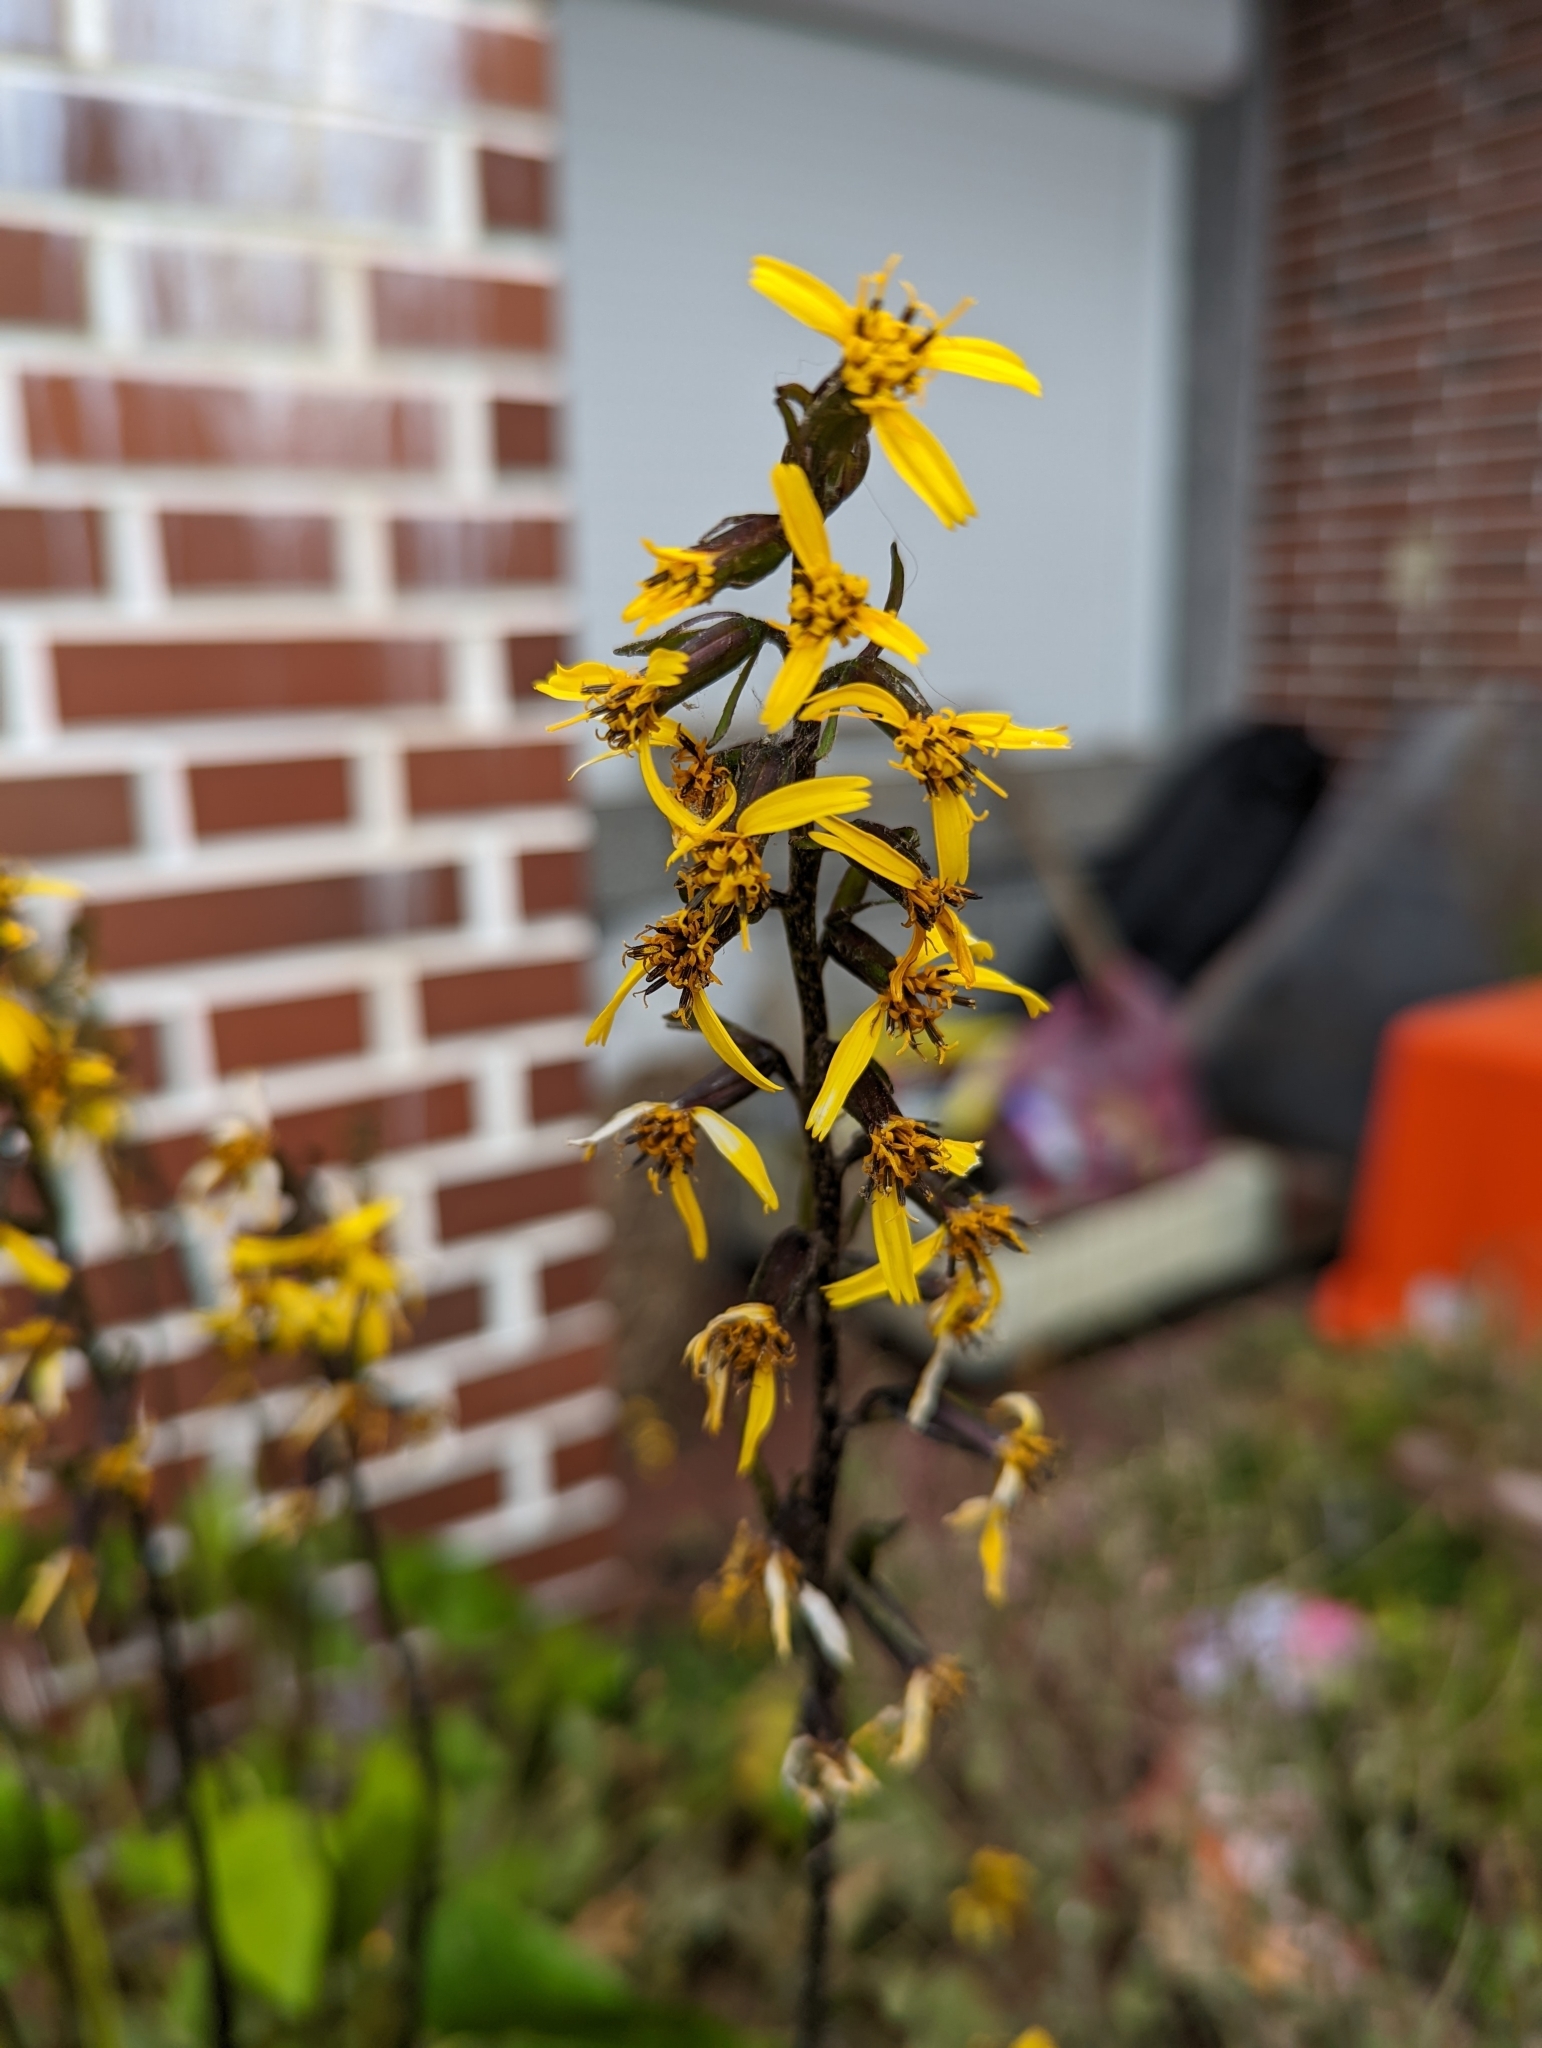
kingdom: Plantae
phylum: Tracheophyta
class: Magnoliopsida
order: Asterales
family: Asteraceae
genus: Ligularia
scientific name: Ligularia kojimae
